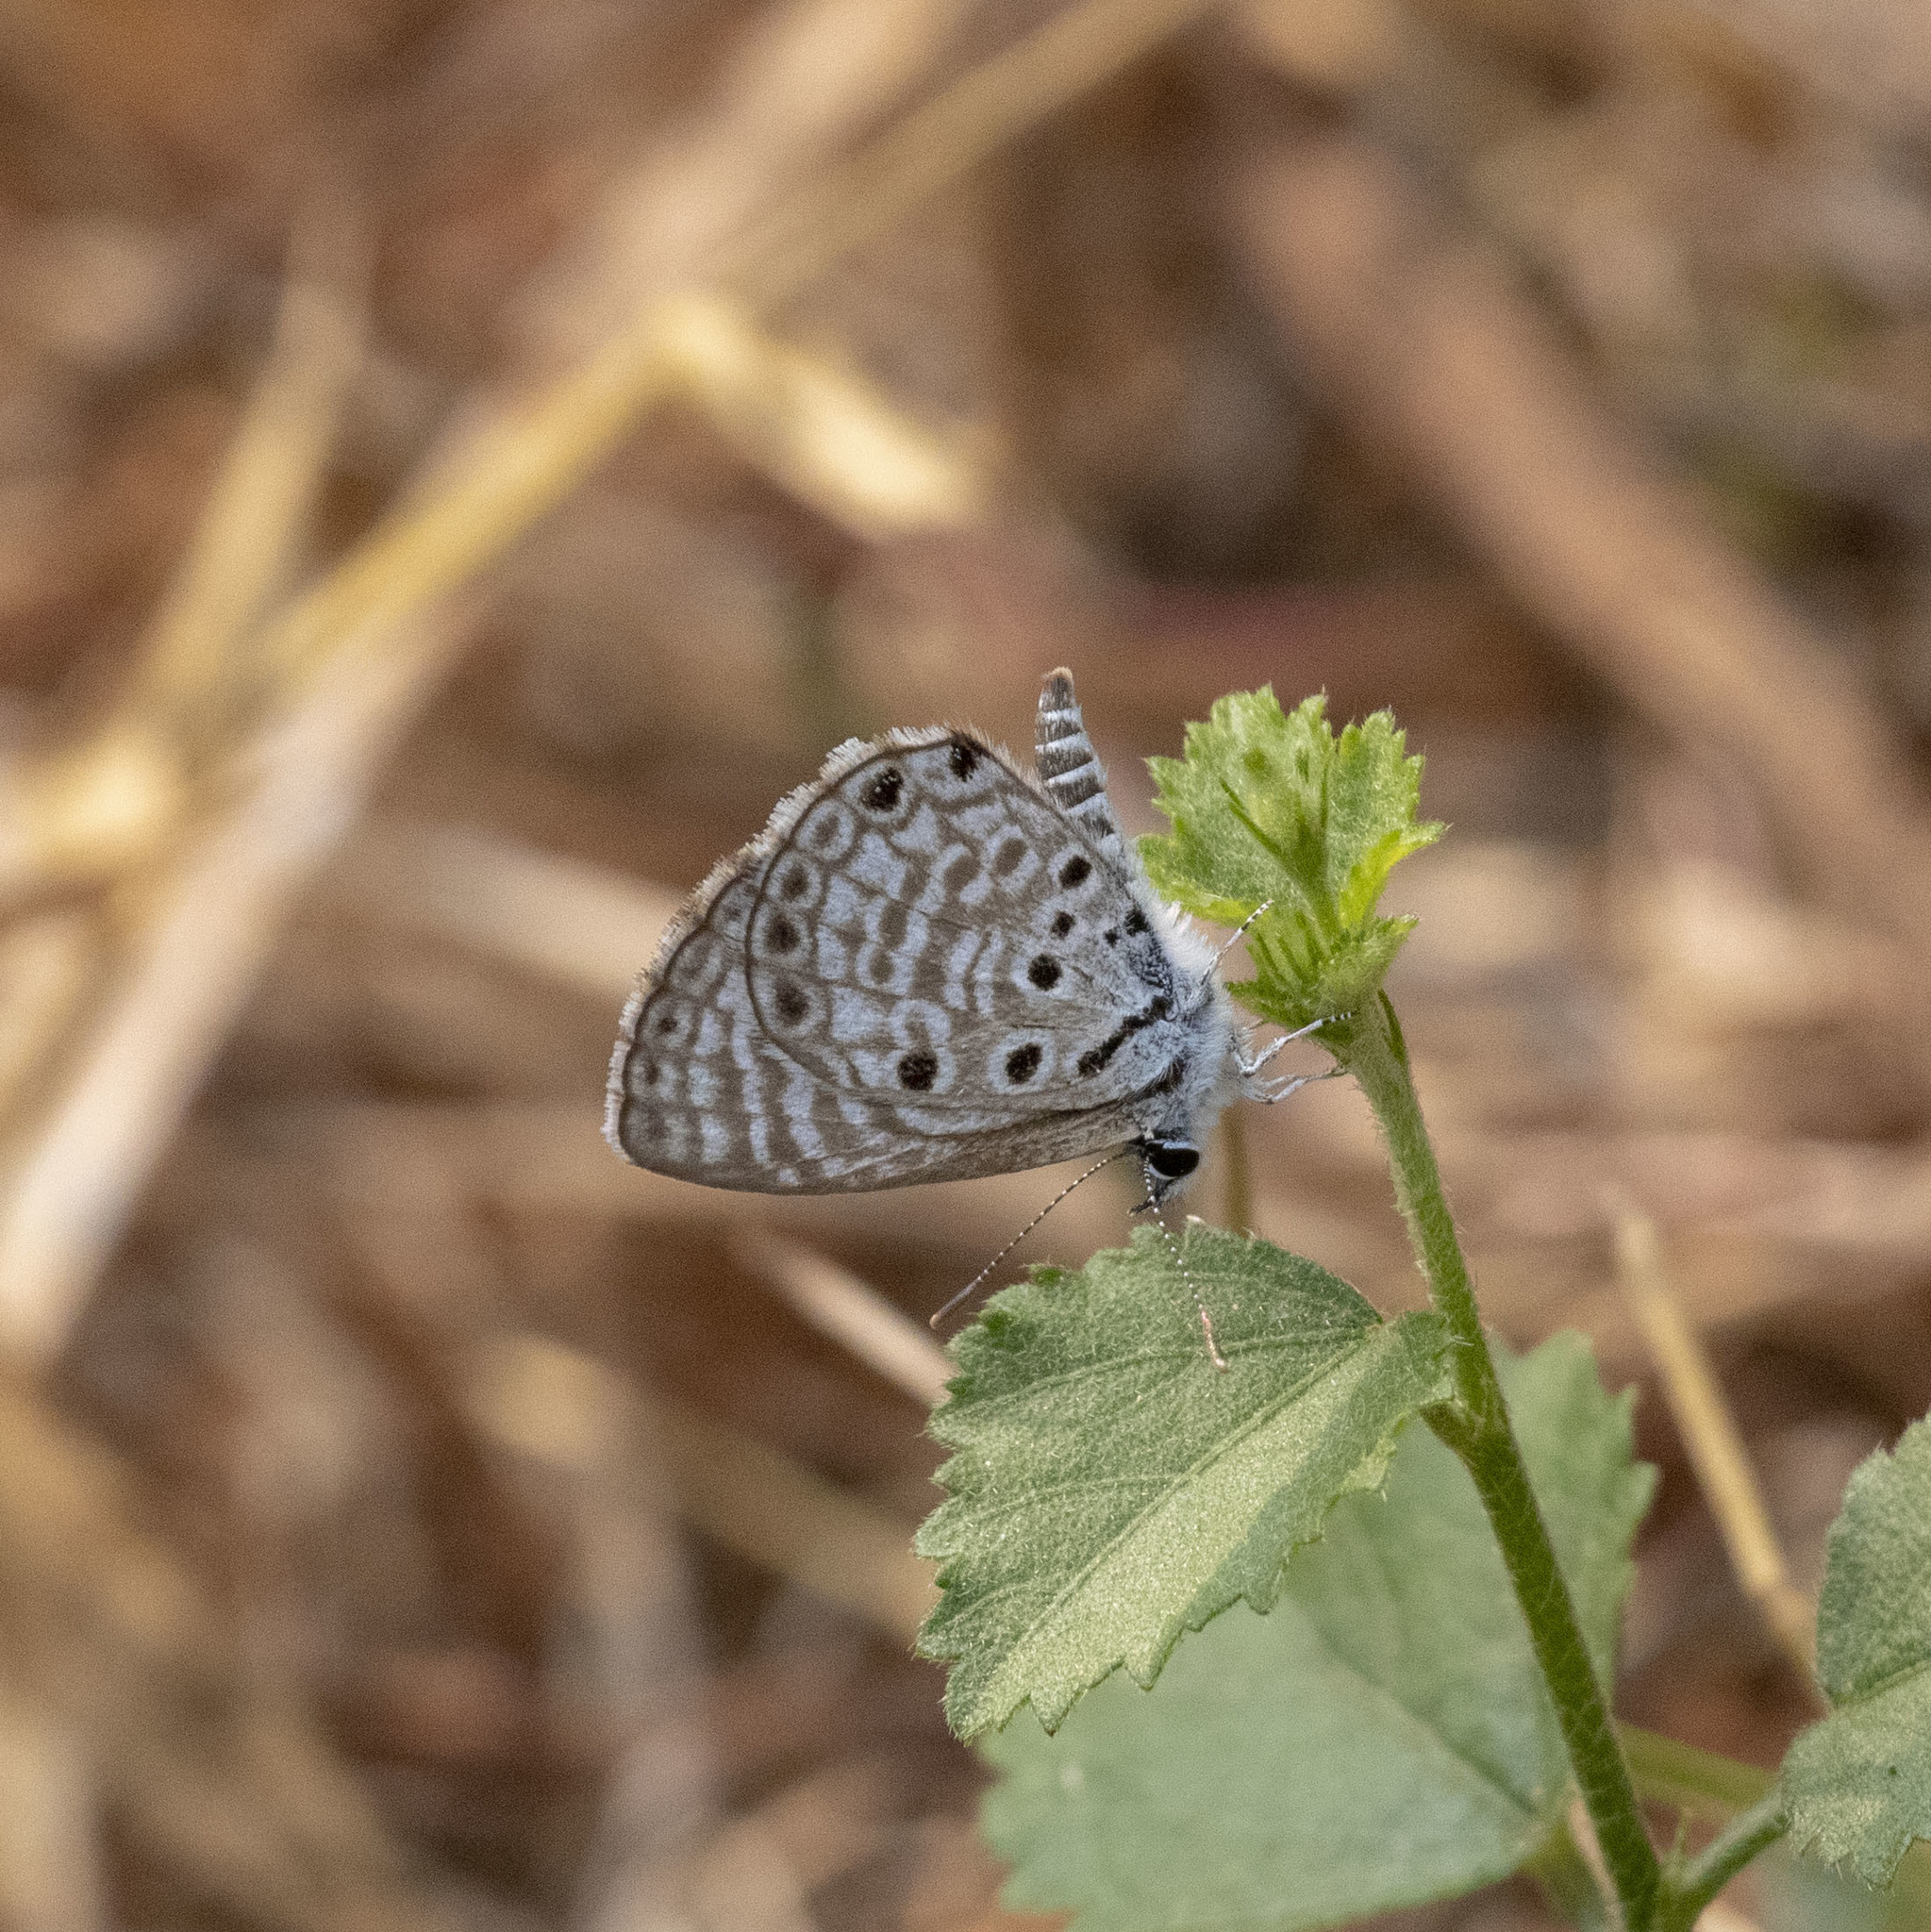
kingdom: Animalia
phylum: Arthropoda
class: Insecta
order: Lepidoptera
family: Lycaenidae
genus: Azanus
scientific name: Azanus jesous
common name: African babul blue
